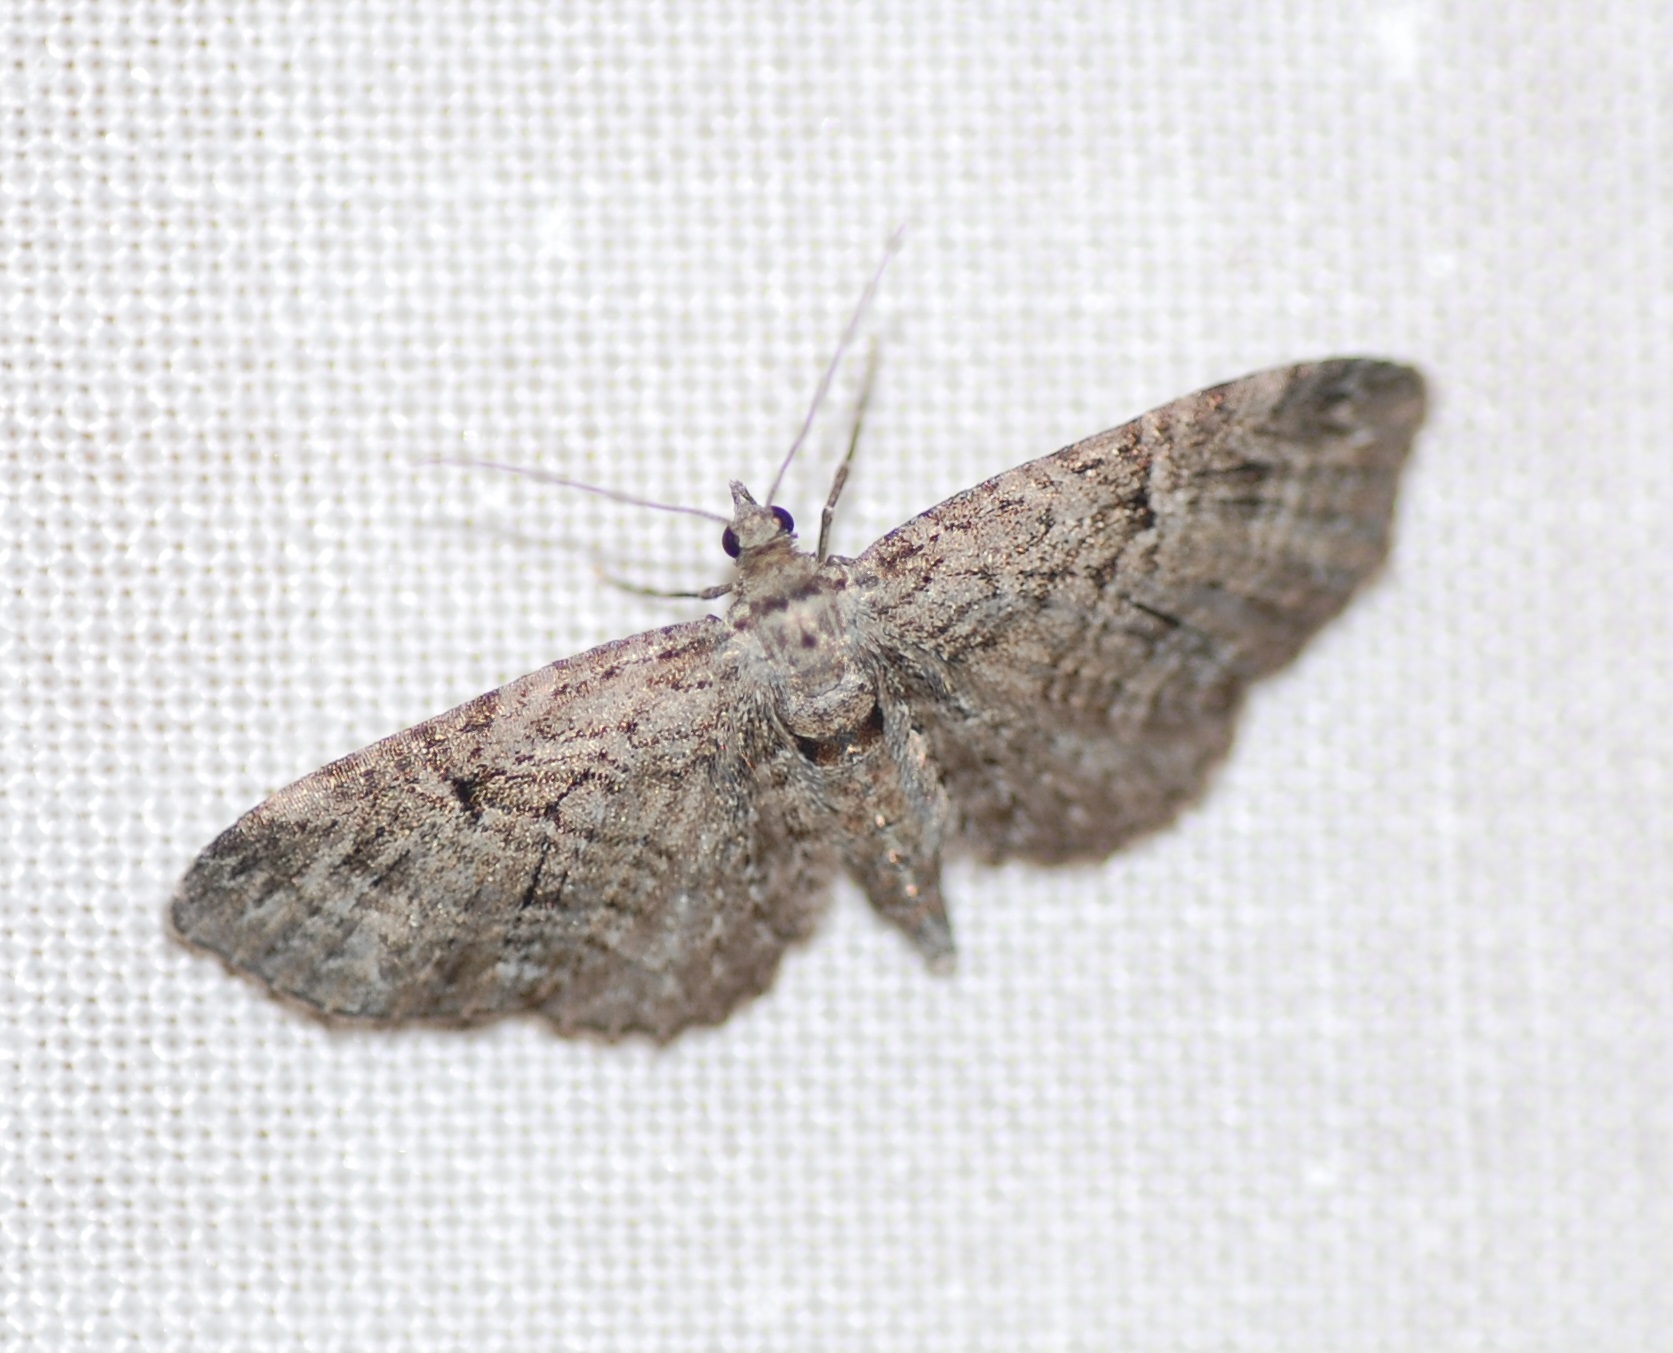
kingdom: Animalia
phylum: Arthropoda
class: Insecta
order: Lepidoptera
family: Geometridae
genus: Eupithecia
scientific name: Eupithecia interruptofasciata
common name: Juniper looper moth
